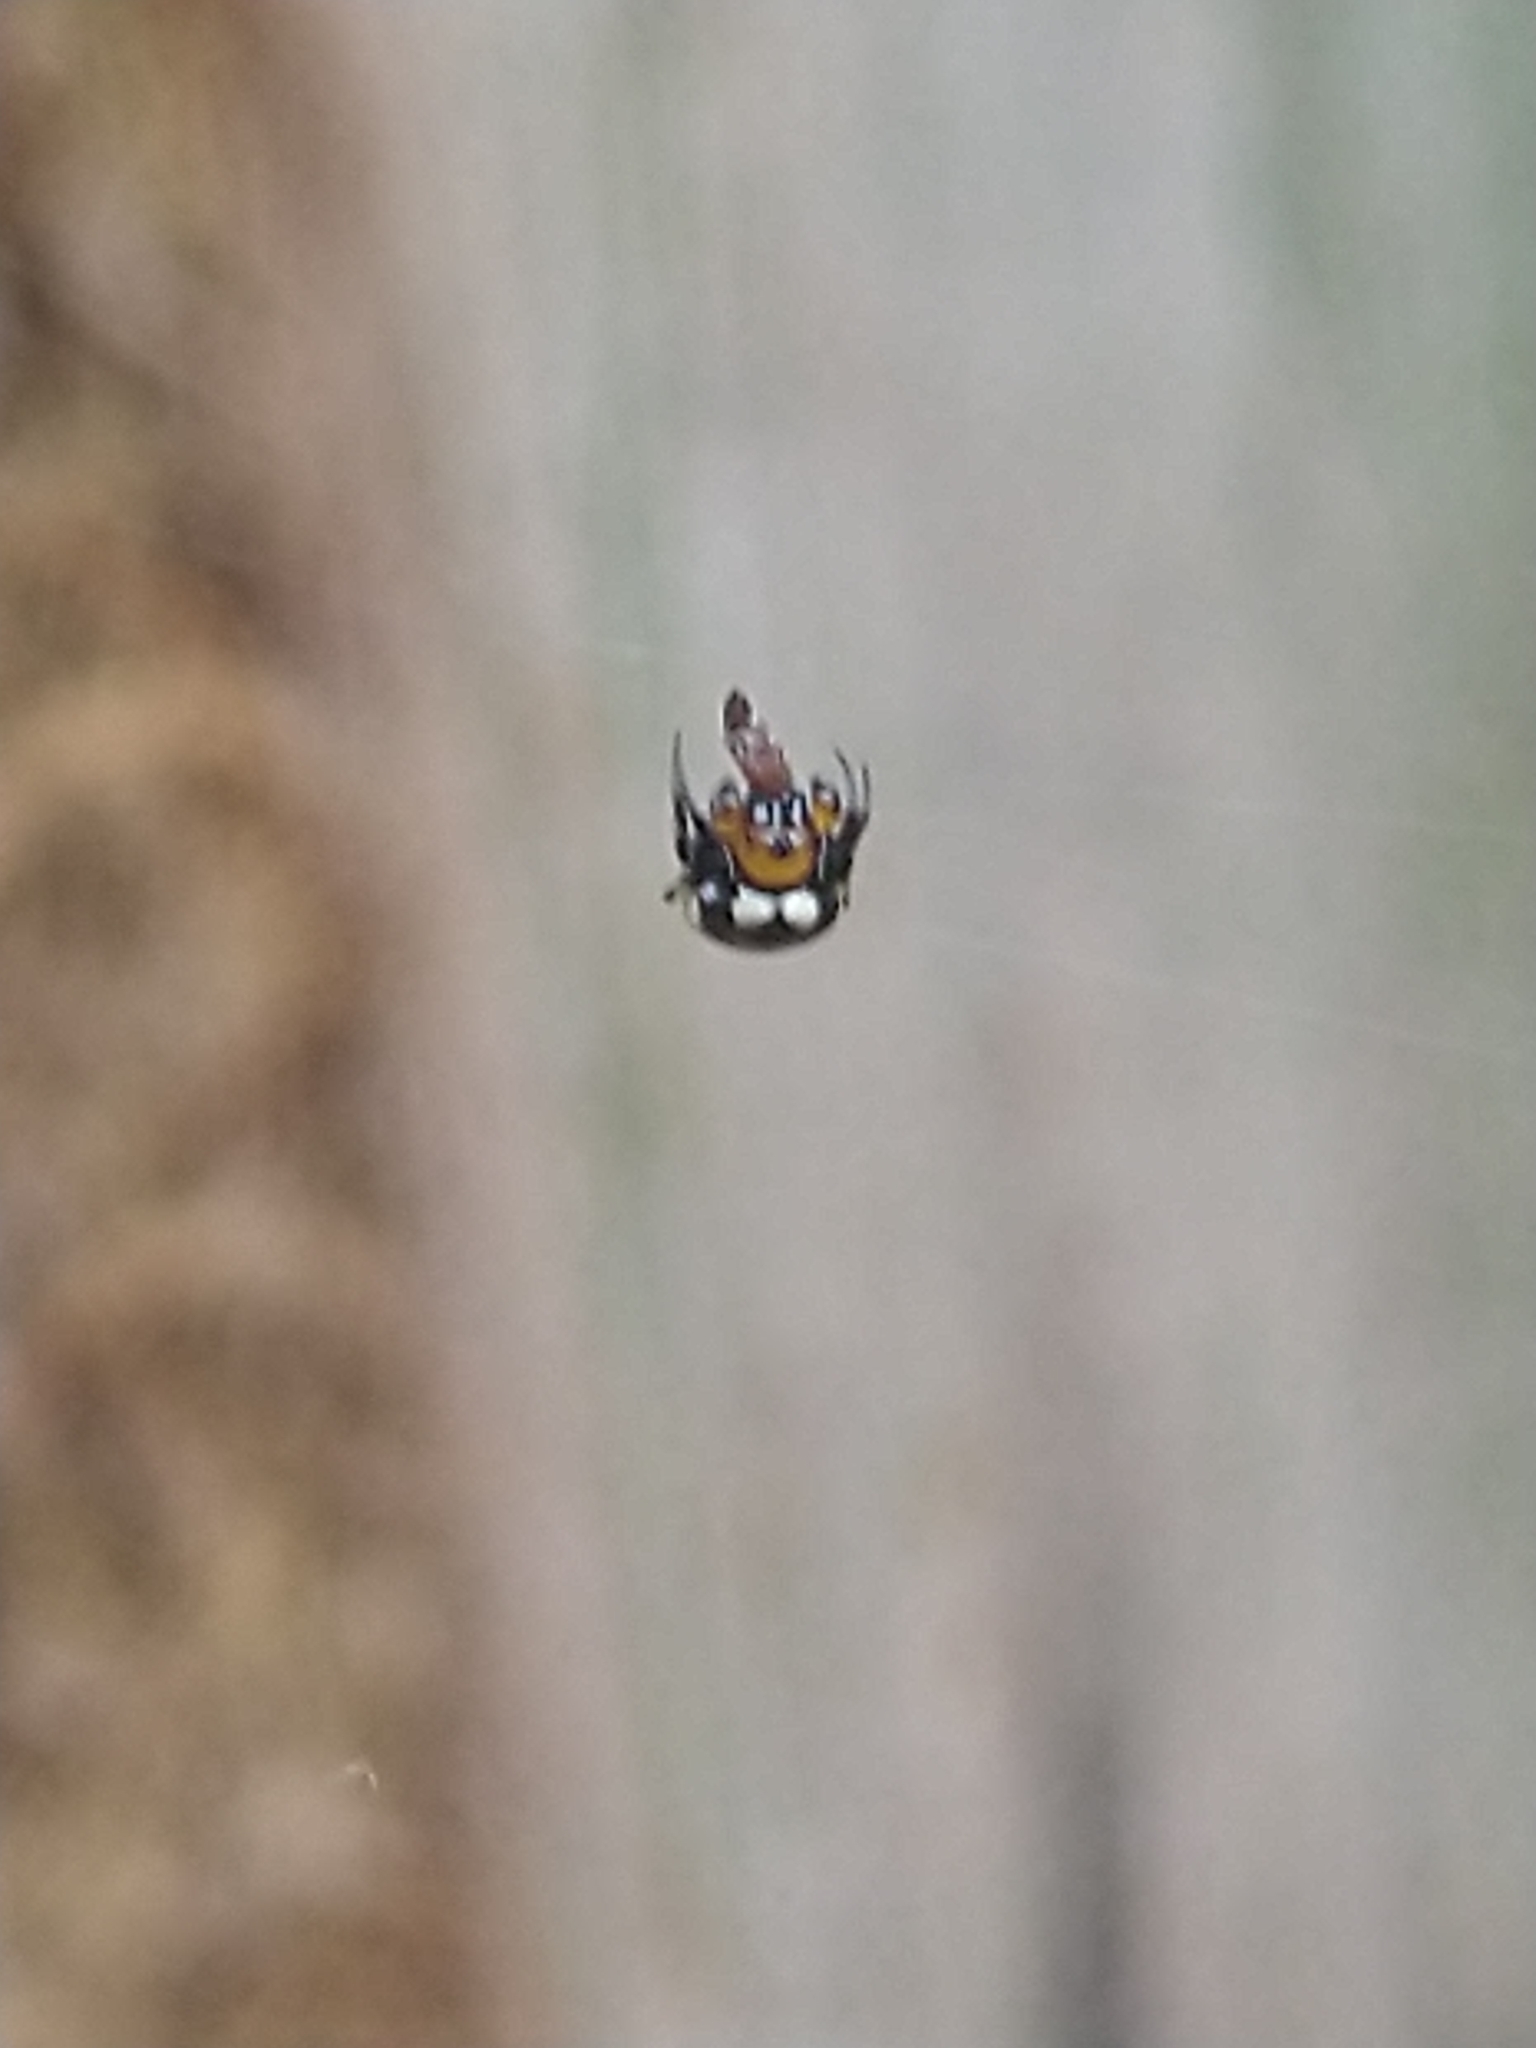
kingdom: Animalia
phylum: Arthropoda
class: Arachnida
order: Araneae
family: Araneidae
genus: Anepsion
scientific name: Anepsion maritatum
